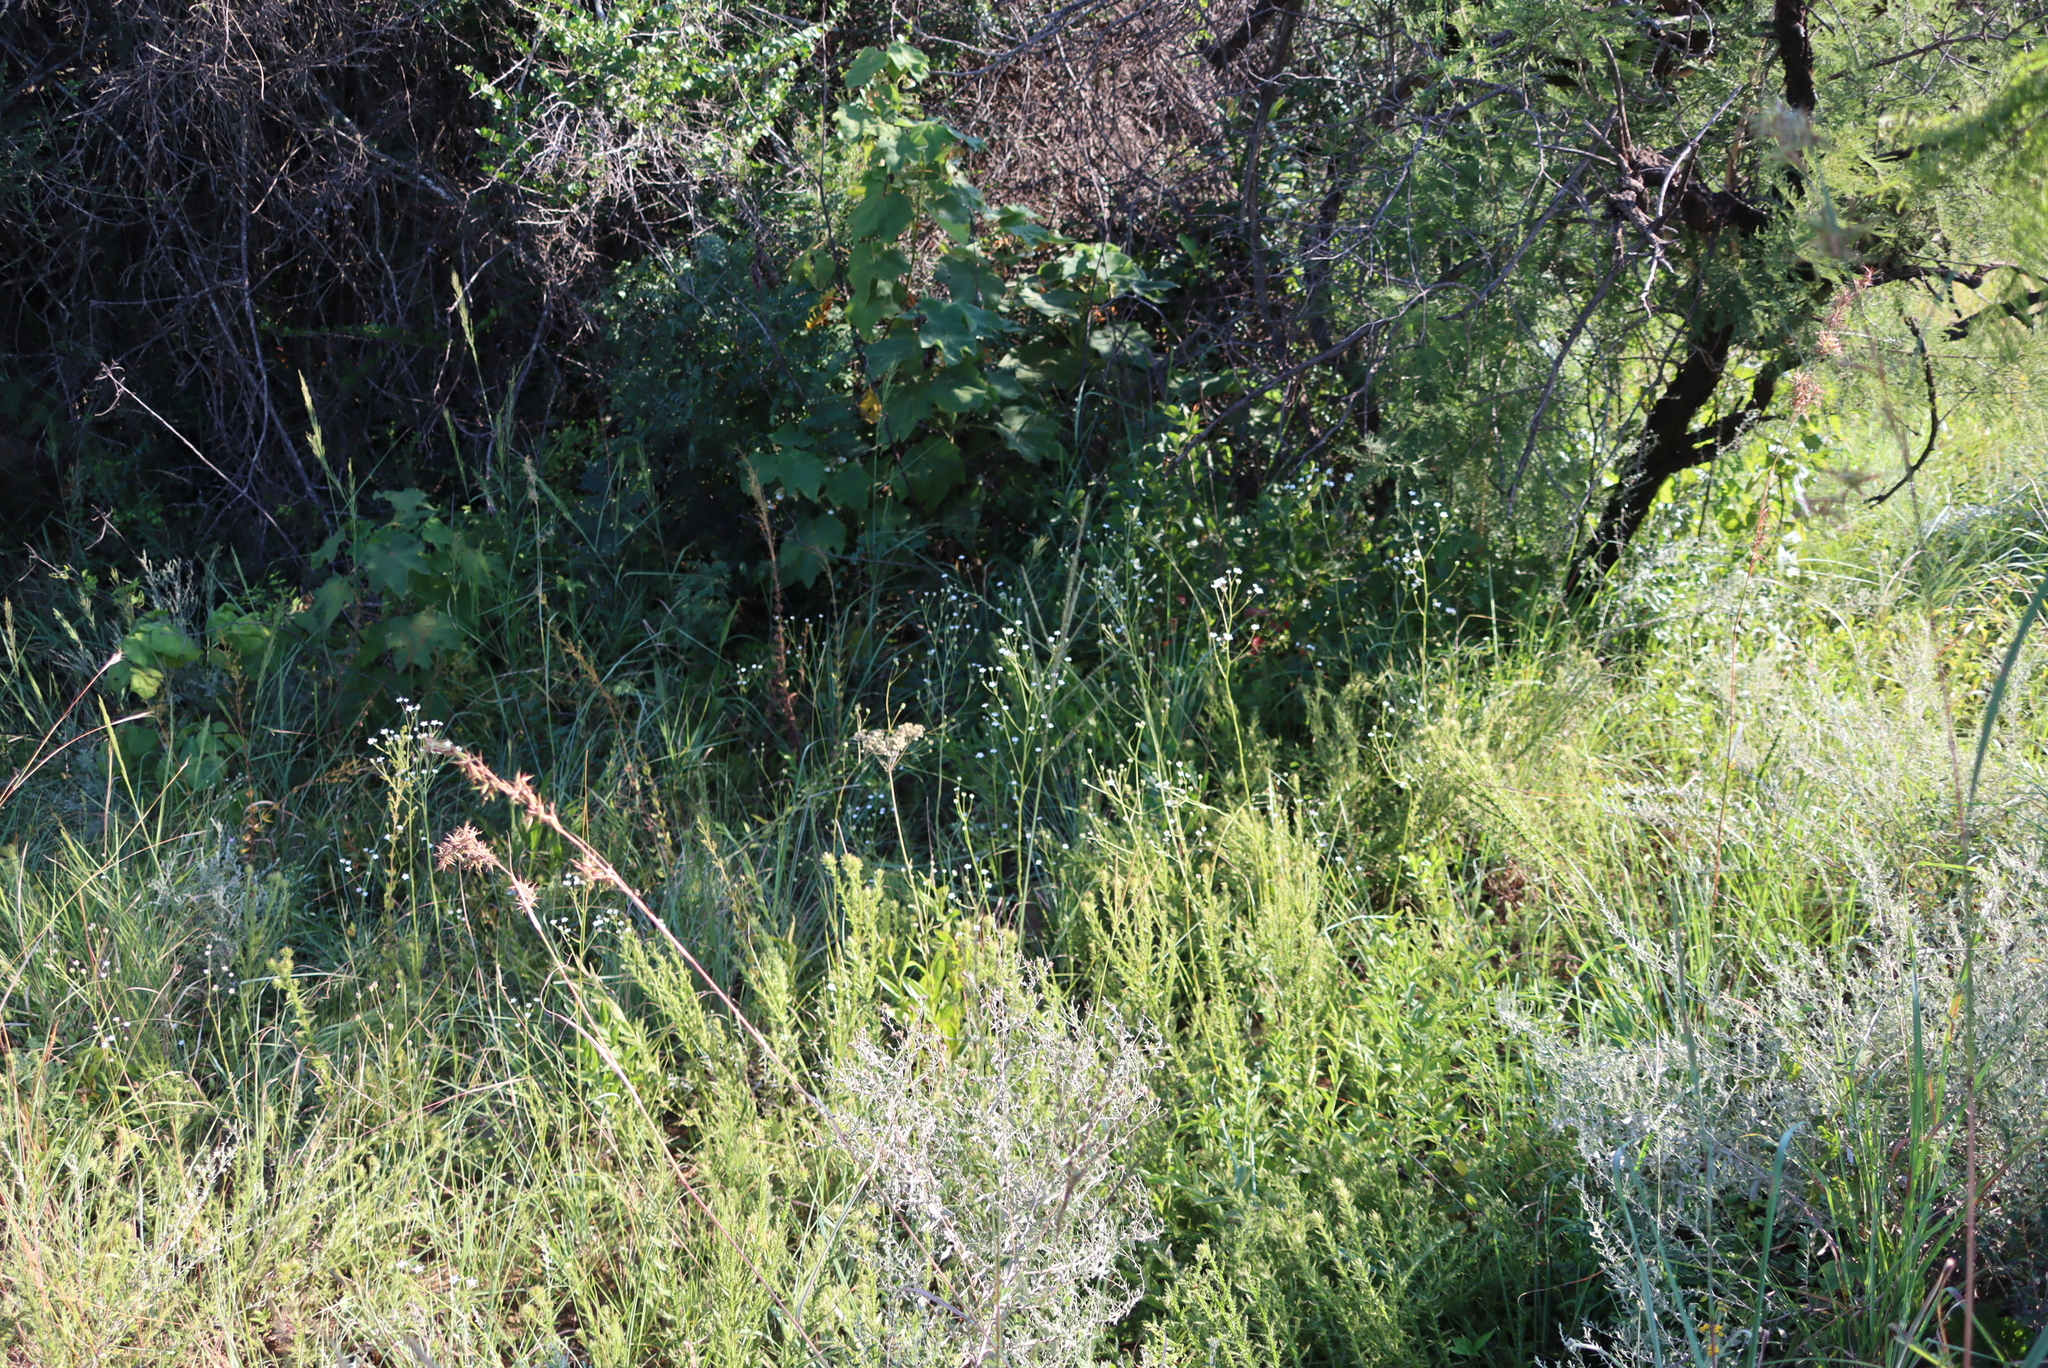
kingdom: Plantae
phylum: Tracheophyta
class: Magnoliopsida
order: Apiales
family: Apiaceae
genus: Alepidea
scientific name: Alepidea peduncularis
